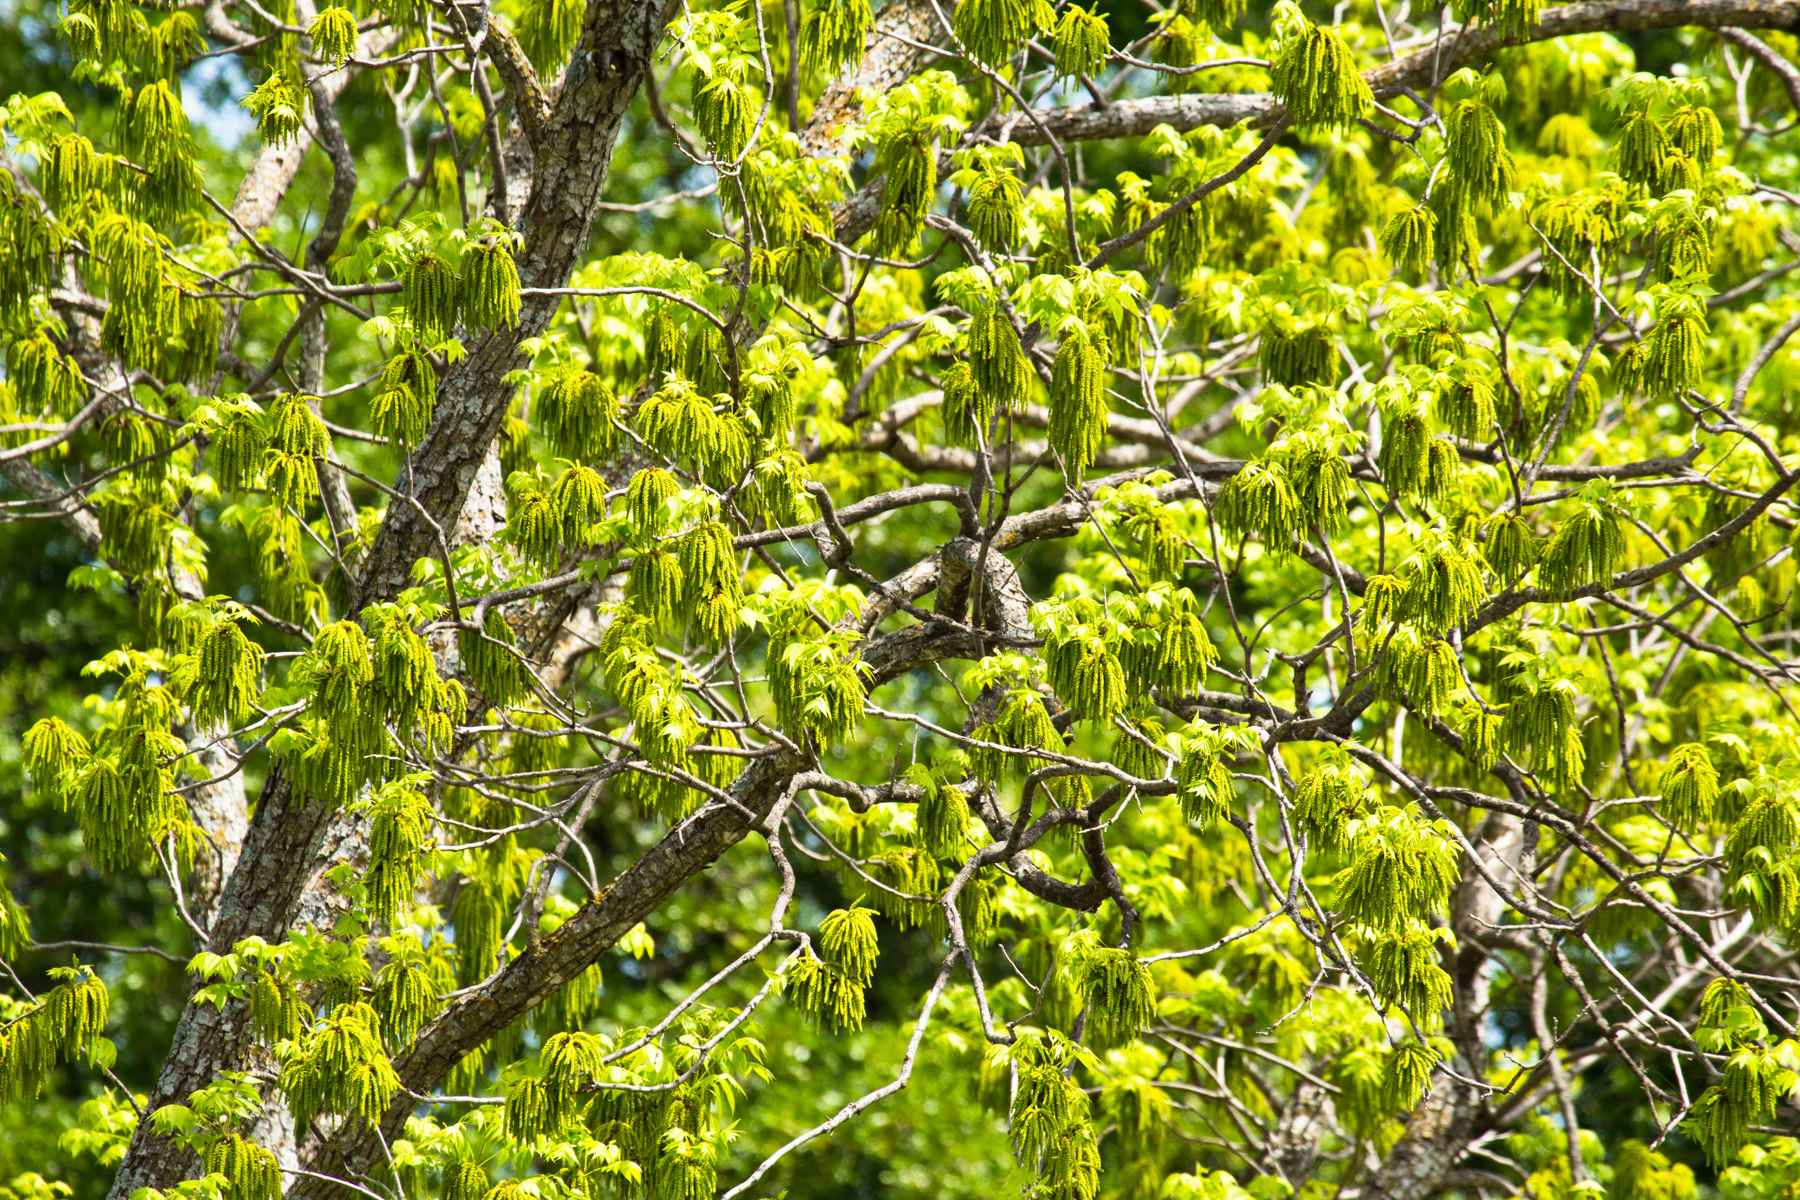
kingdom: Plantae
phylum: Tracheophyta
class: Magnoliopsida
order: Fagales
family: Juglandaceae
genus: Carya
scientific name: Carya illinoinensis
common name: Pecan
